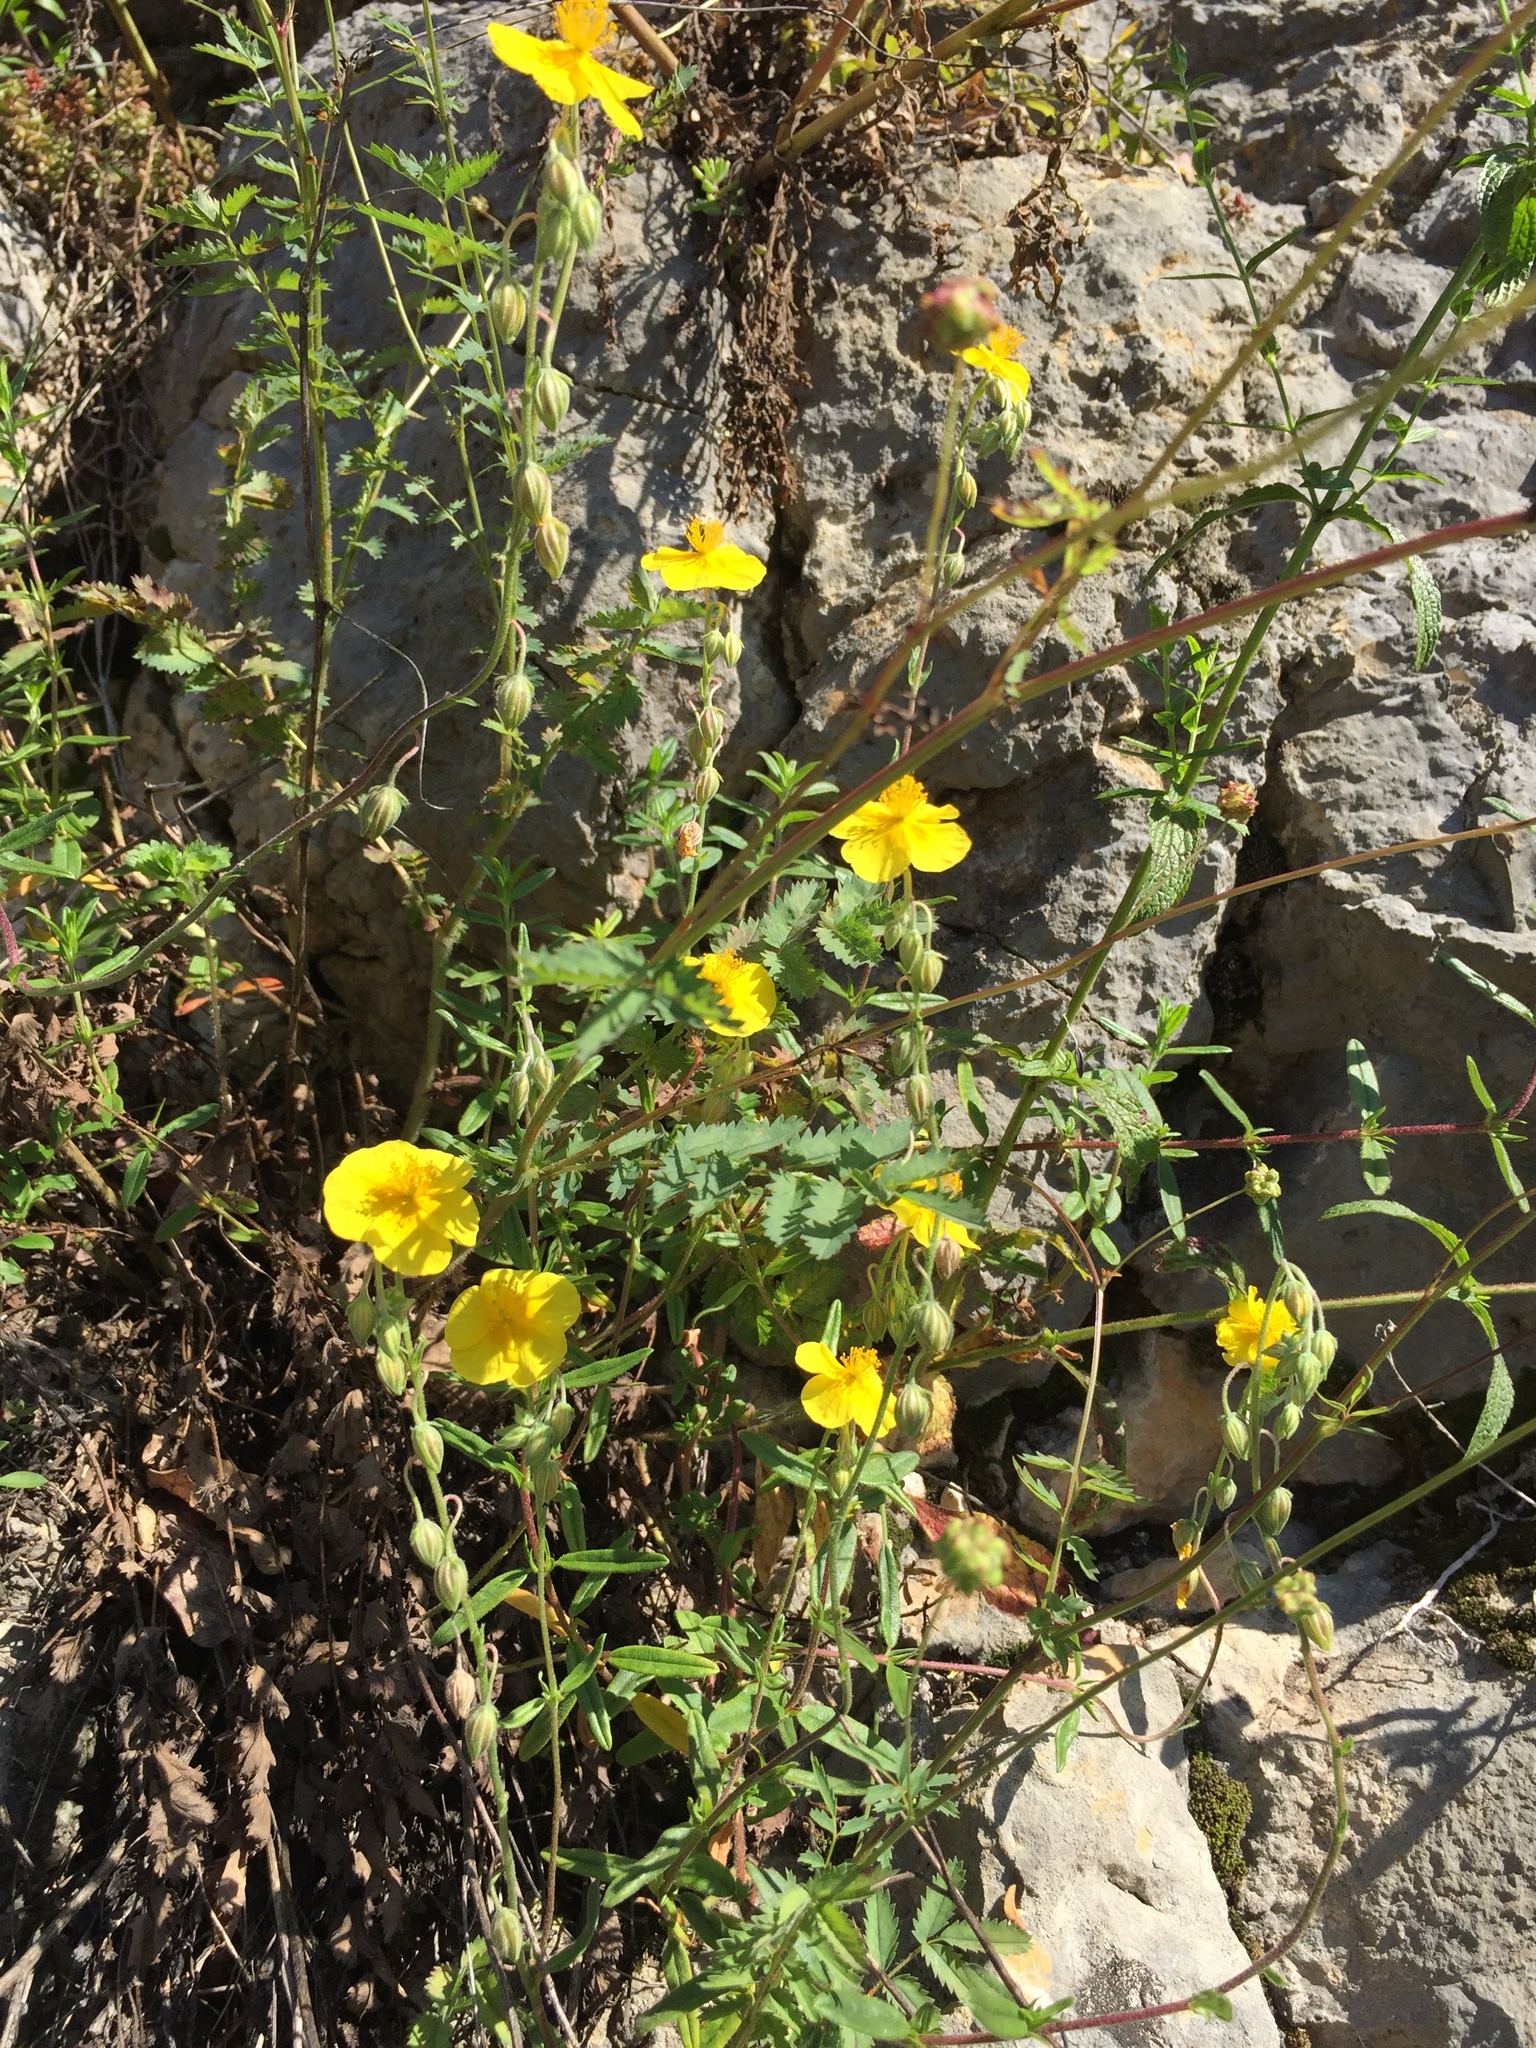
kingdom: Plantae
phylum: Tracheophyta
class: Magnoliopsida
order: Malvales
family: Cistaceae
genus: Helianthemum
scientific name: Helianthemum nummularium
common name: Common rock-rose
